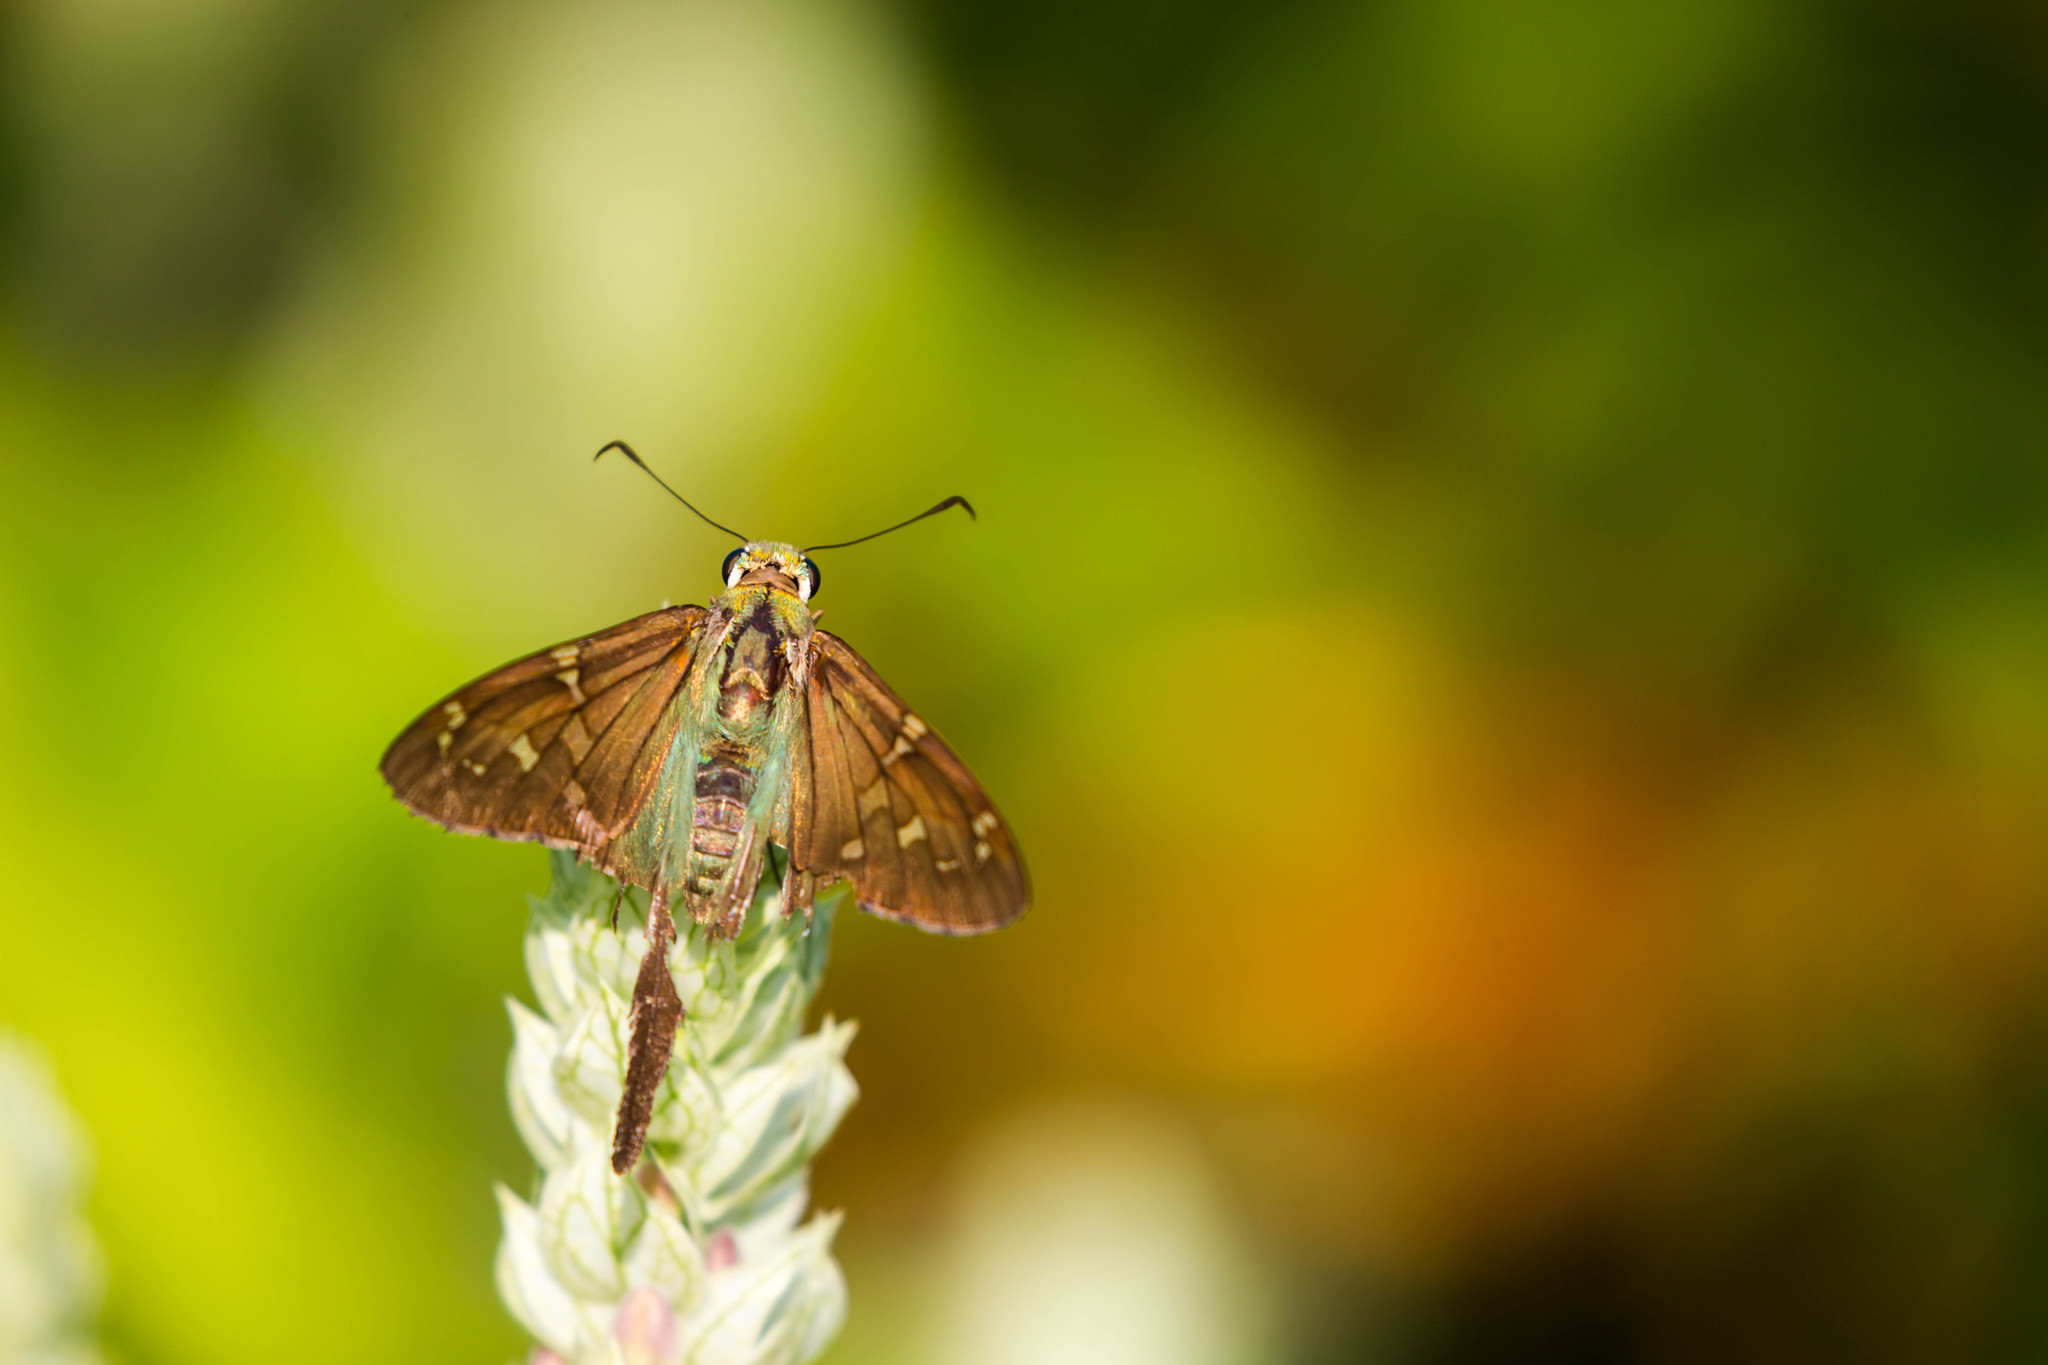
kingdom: Animalia
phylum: Arthropoda
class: Insecta
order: Lepidoptera
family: Hesperiidae
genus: Urbanus
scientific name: Urbanus proteus
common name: Long-tailed skipper
